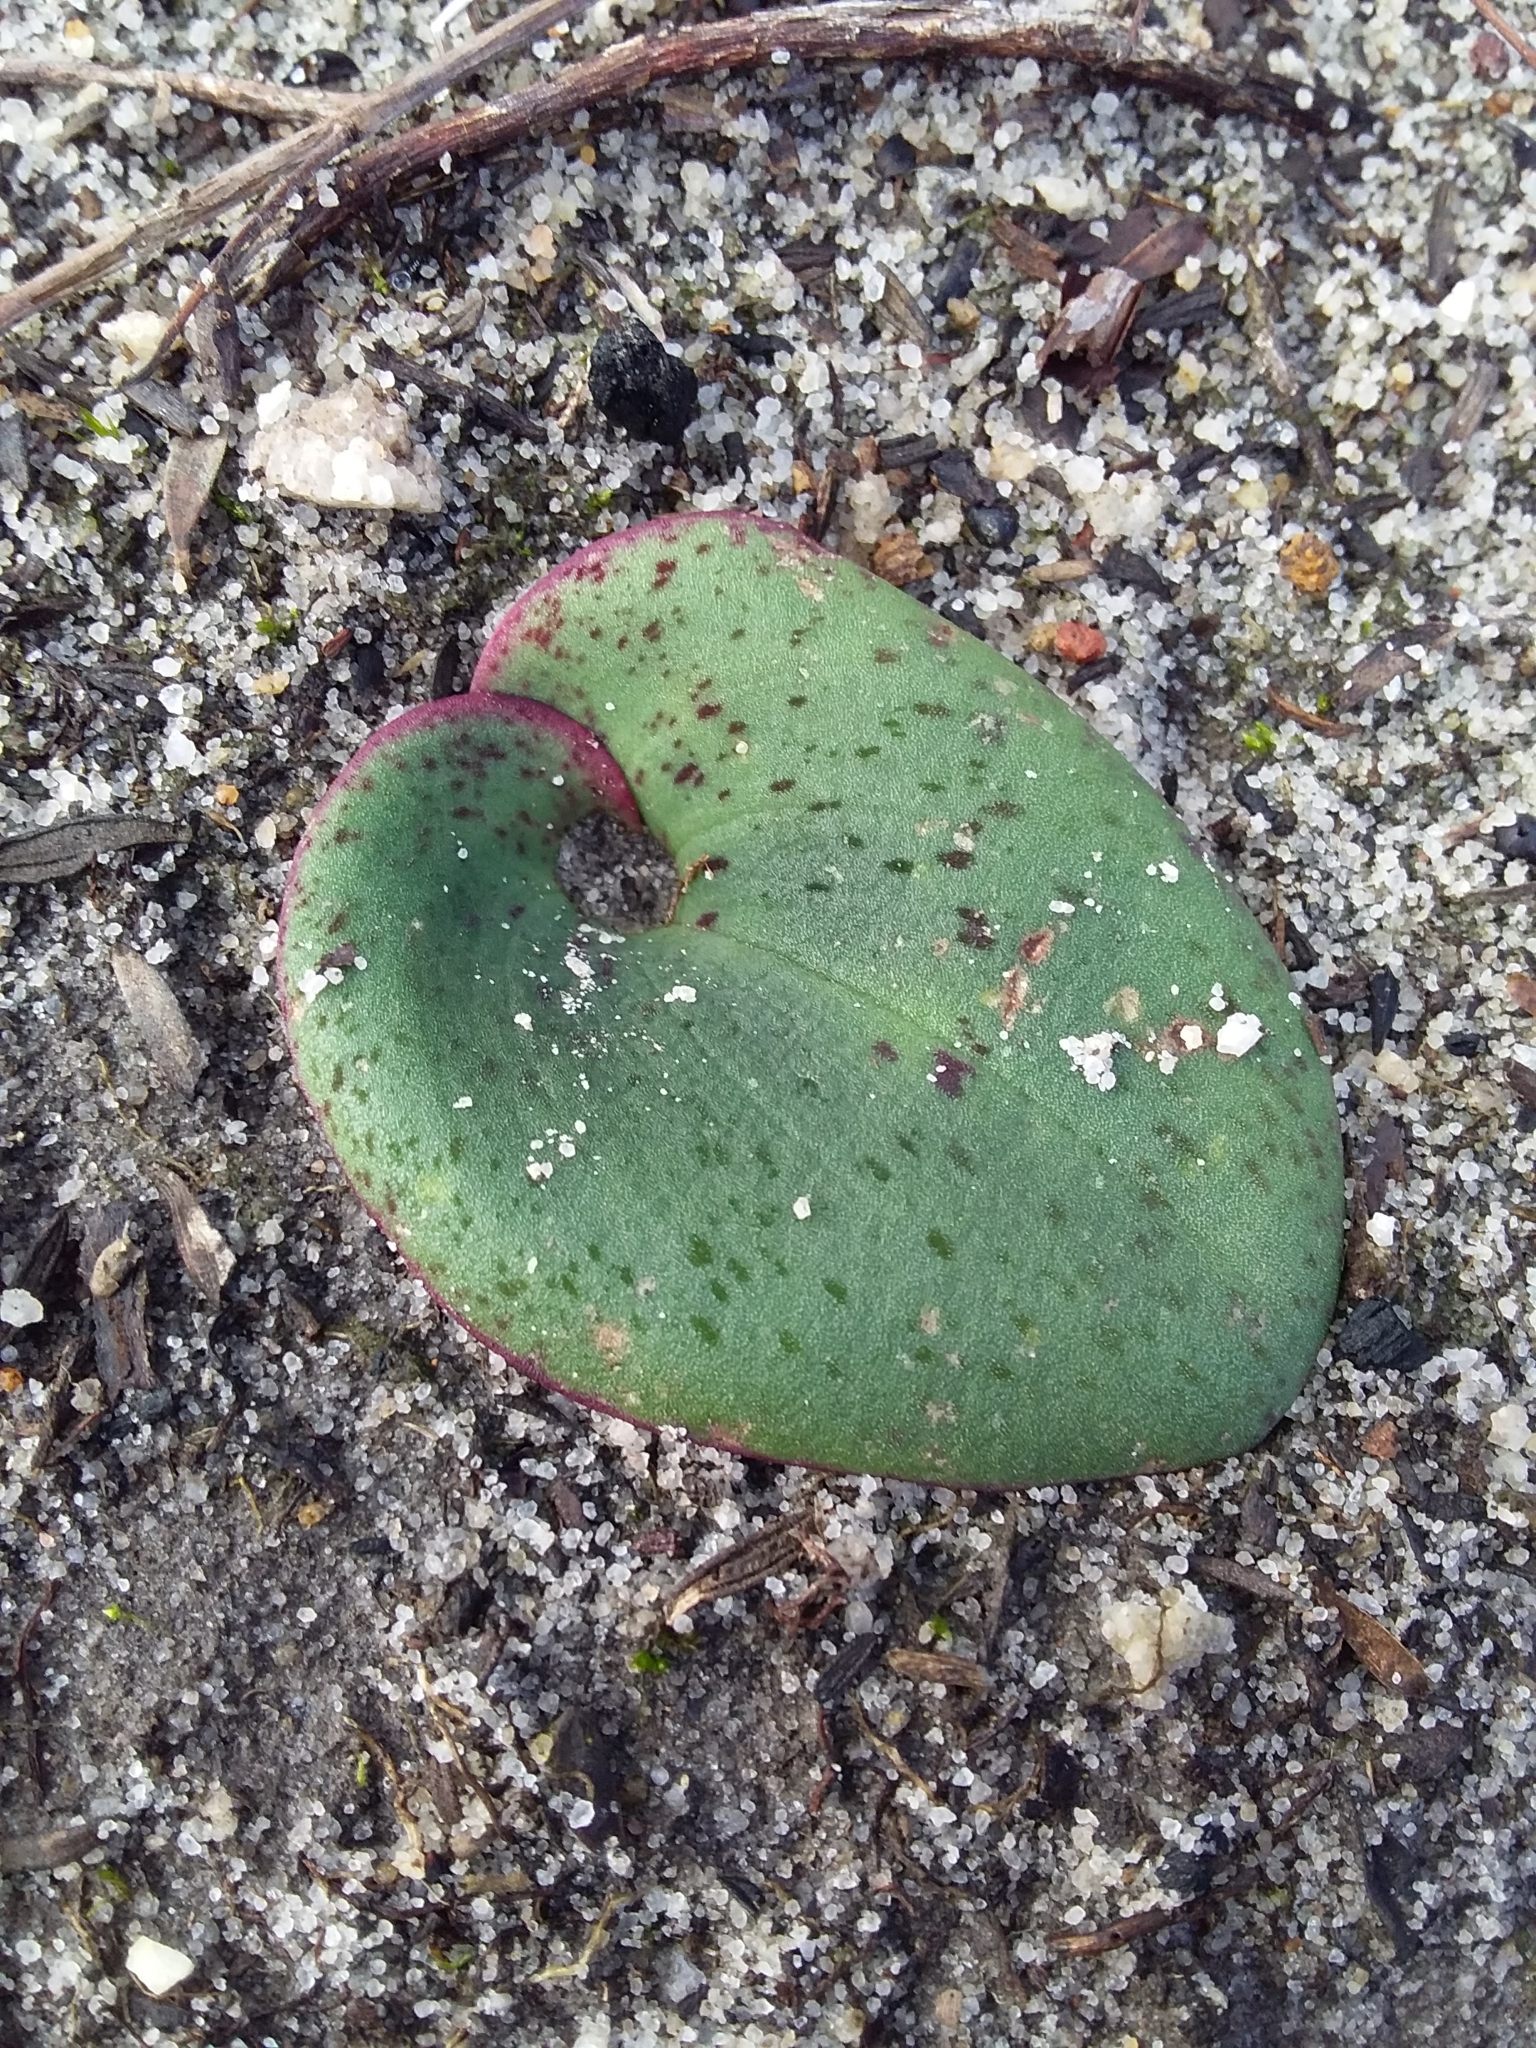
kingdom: Plantae
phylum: Tracheophyta
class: Liliopsida
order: Asparagales
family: Orchidaceae
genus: Pyrorchis
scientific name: Pyrorchis nigricans
